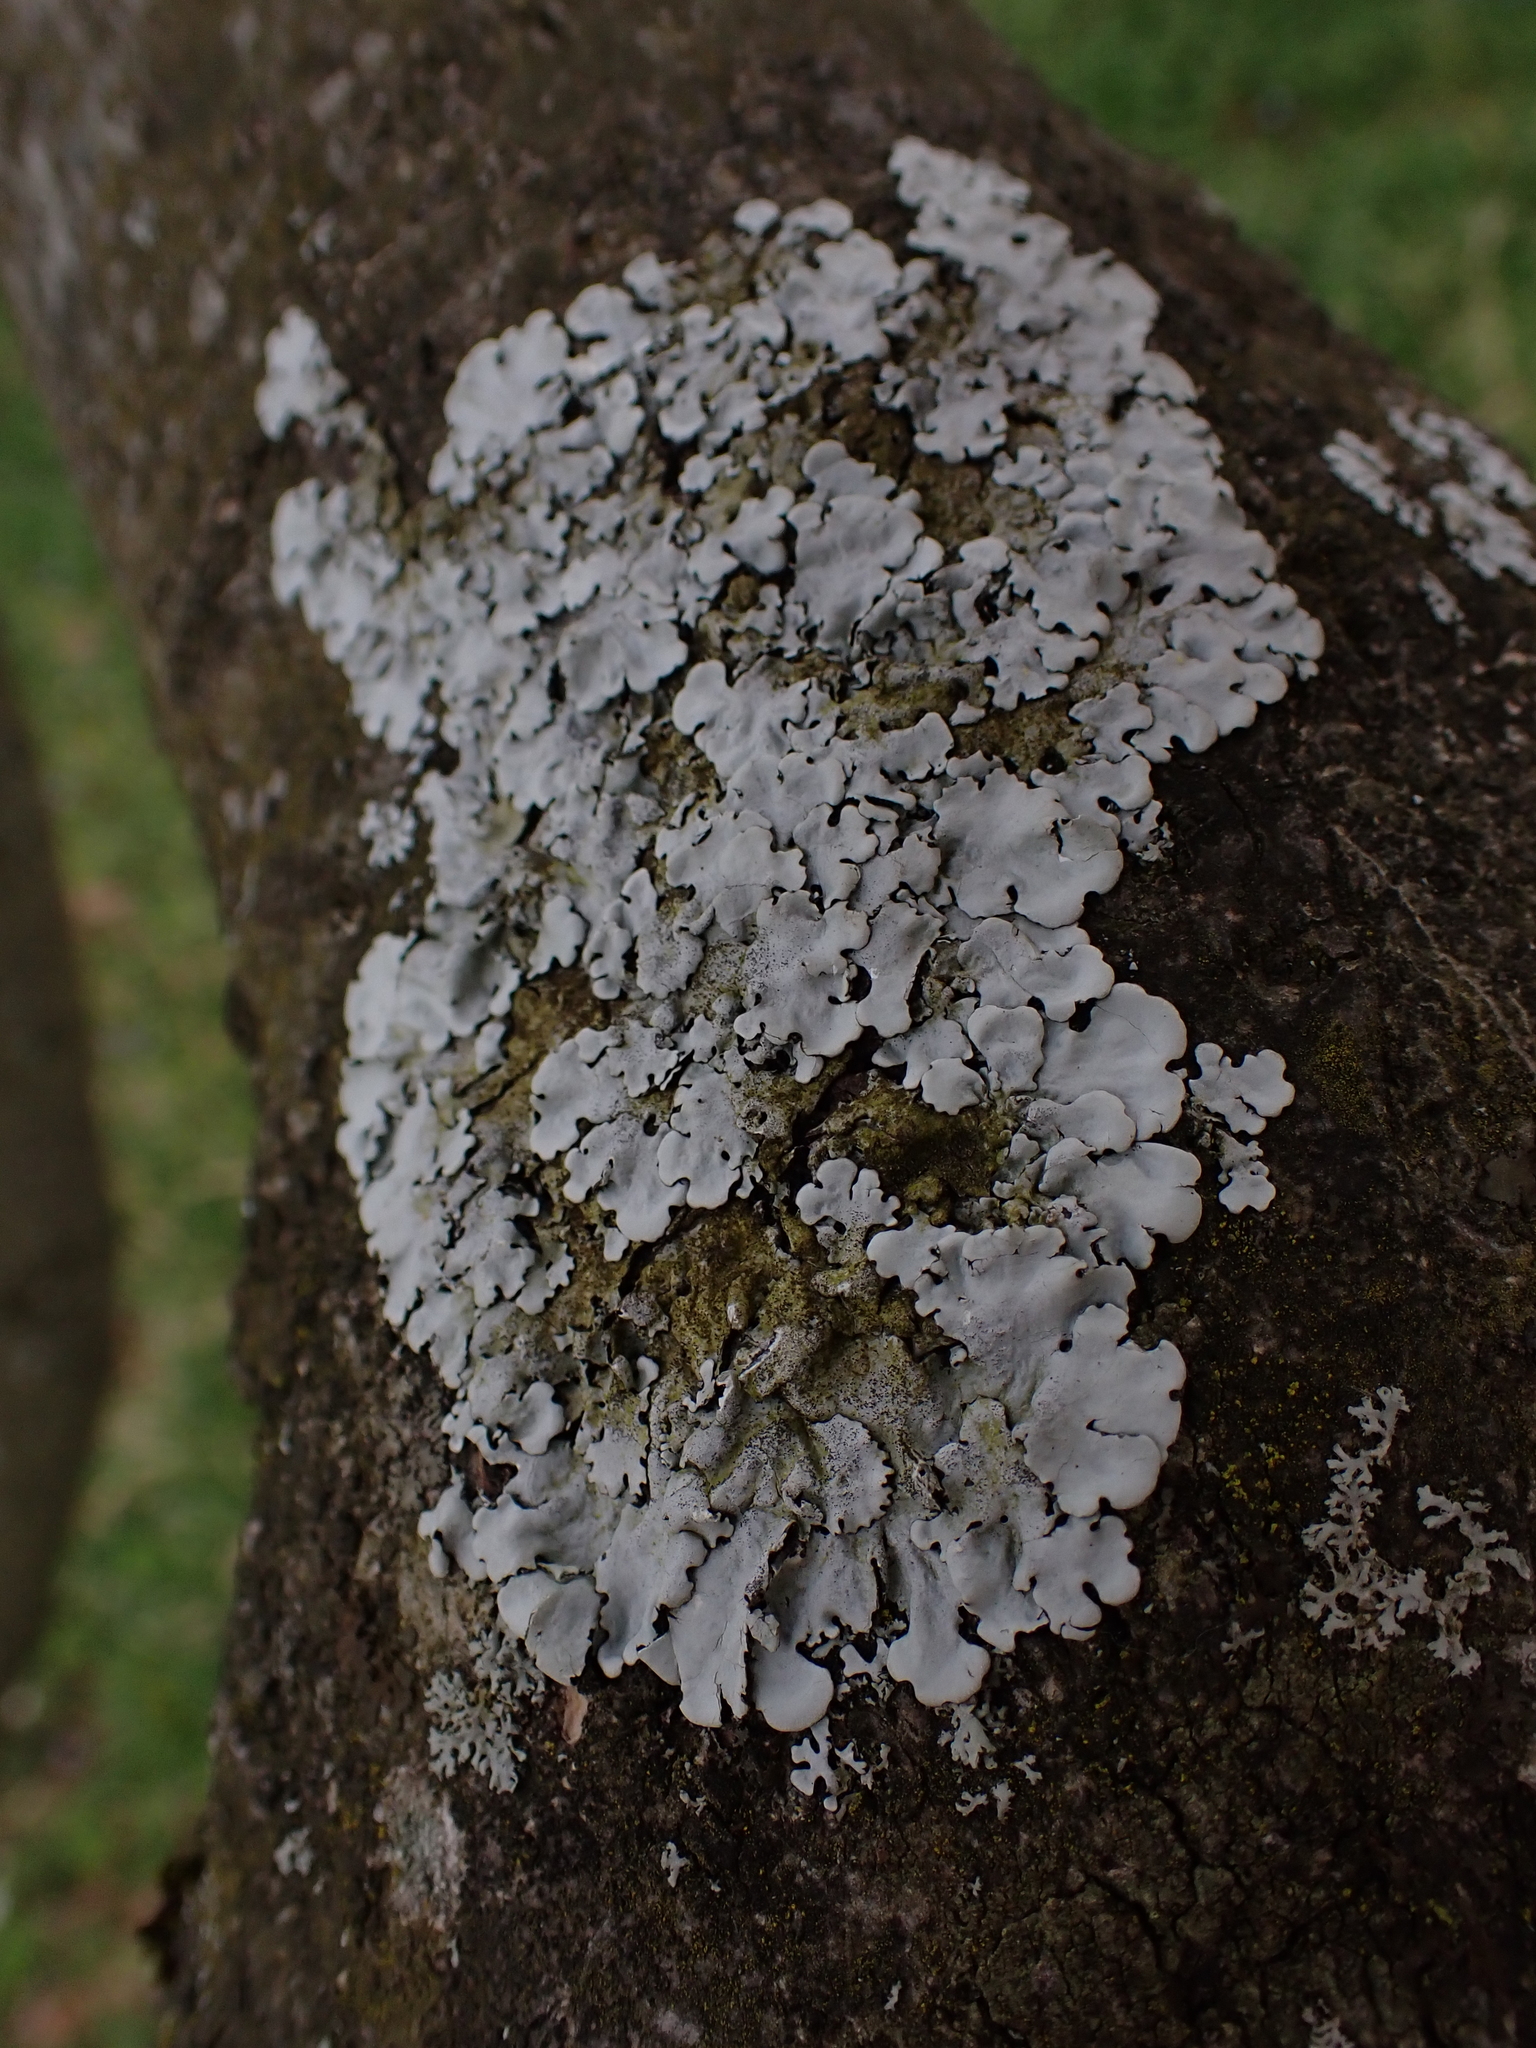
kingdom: Fungi
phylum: Ascomycota
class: Lecanoromycetes
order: Lecanorales
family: Parmeliaceae
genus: Parmelina
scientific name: Parmelina tiliacea
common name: Linden shield lichen
